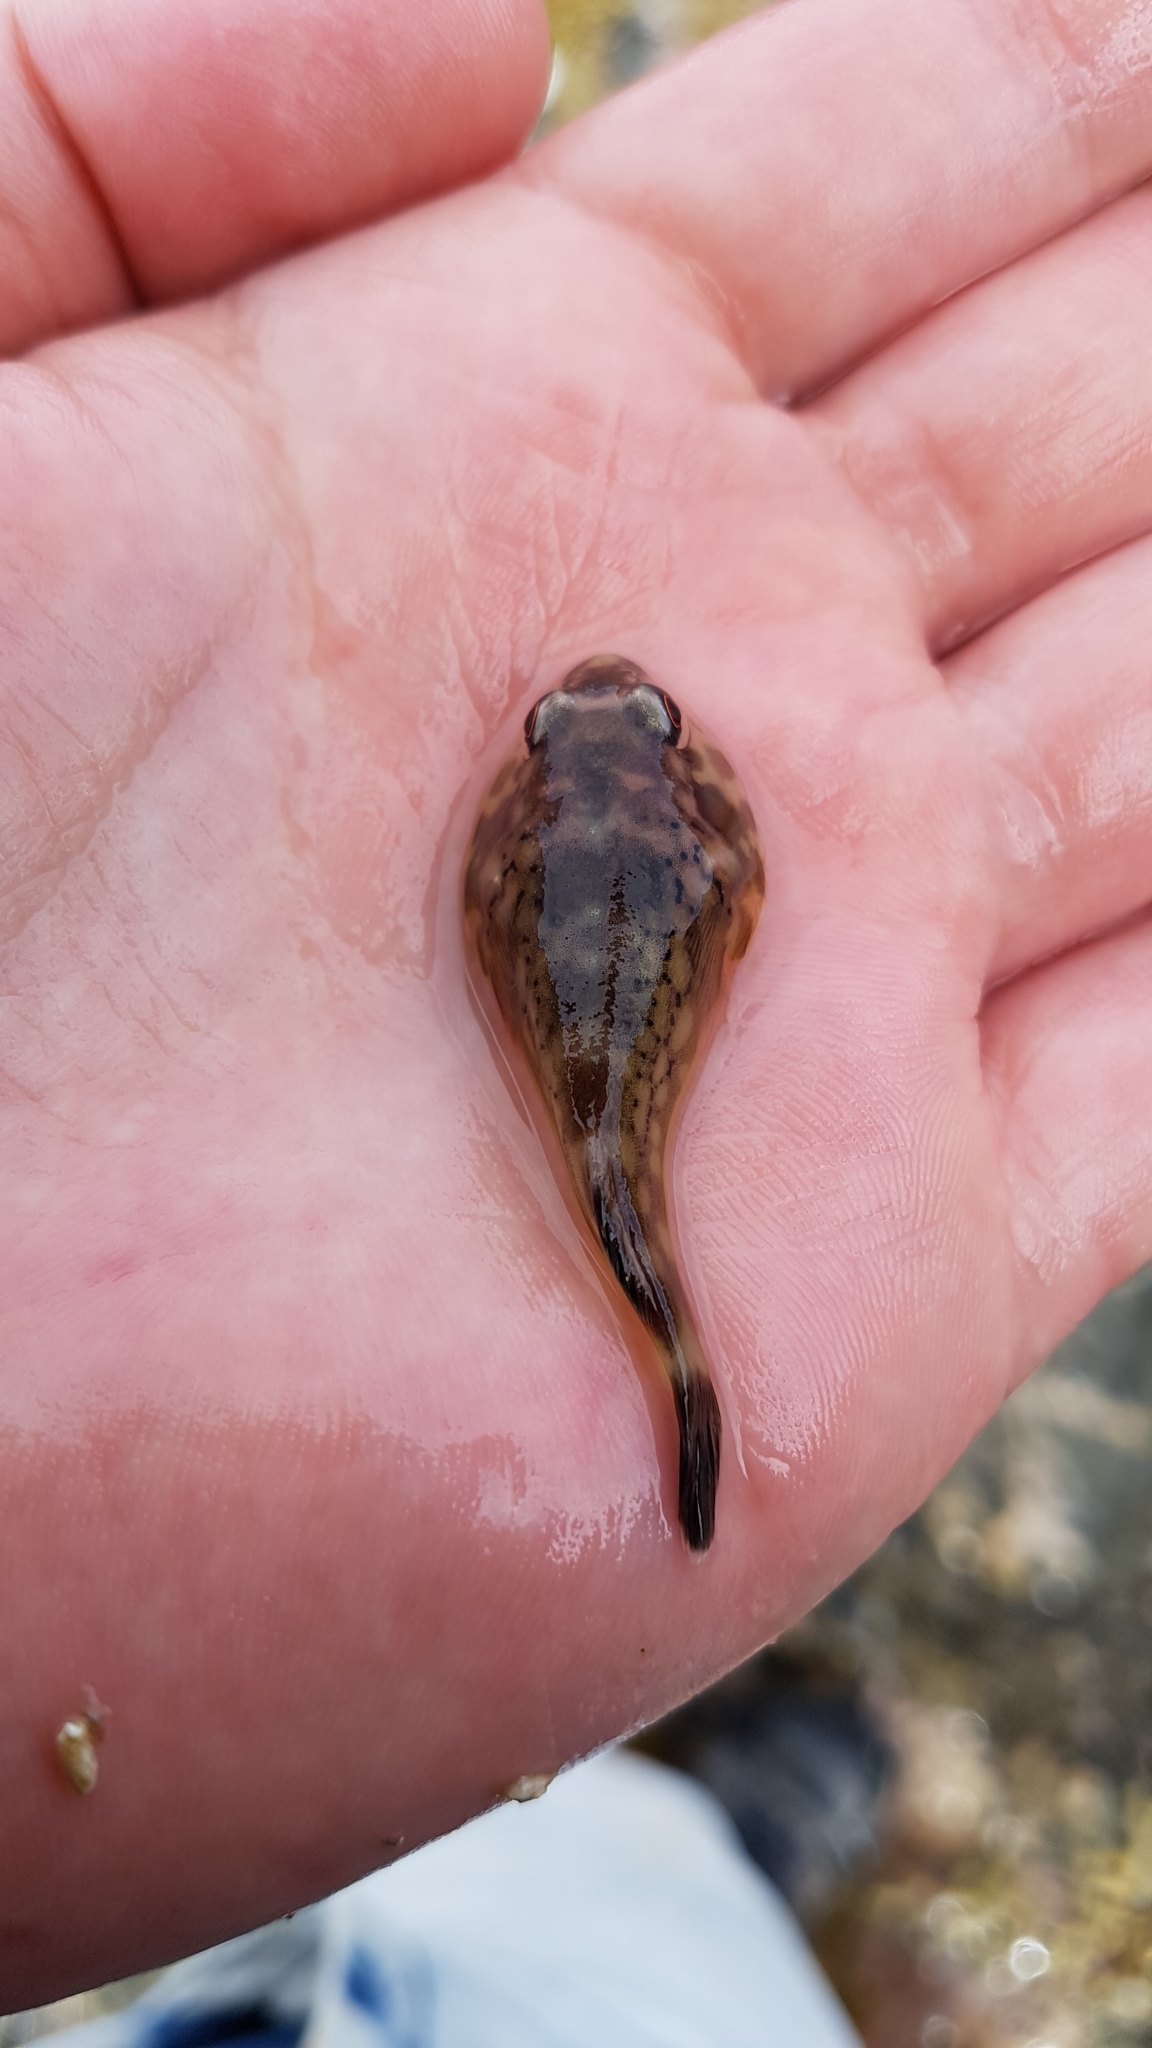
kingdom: Animalia
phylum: Chordata
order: Gobiesociformes
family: Gobiesocidae
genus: Diplocrepis
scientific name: Diplocrepis puniceus
